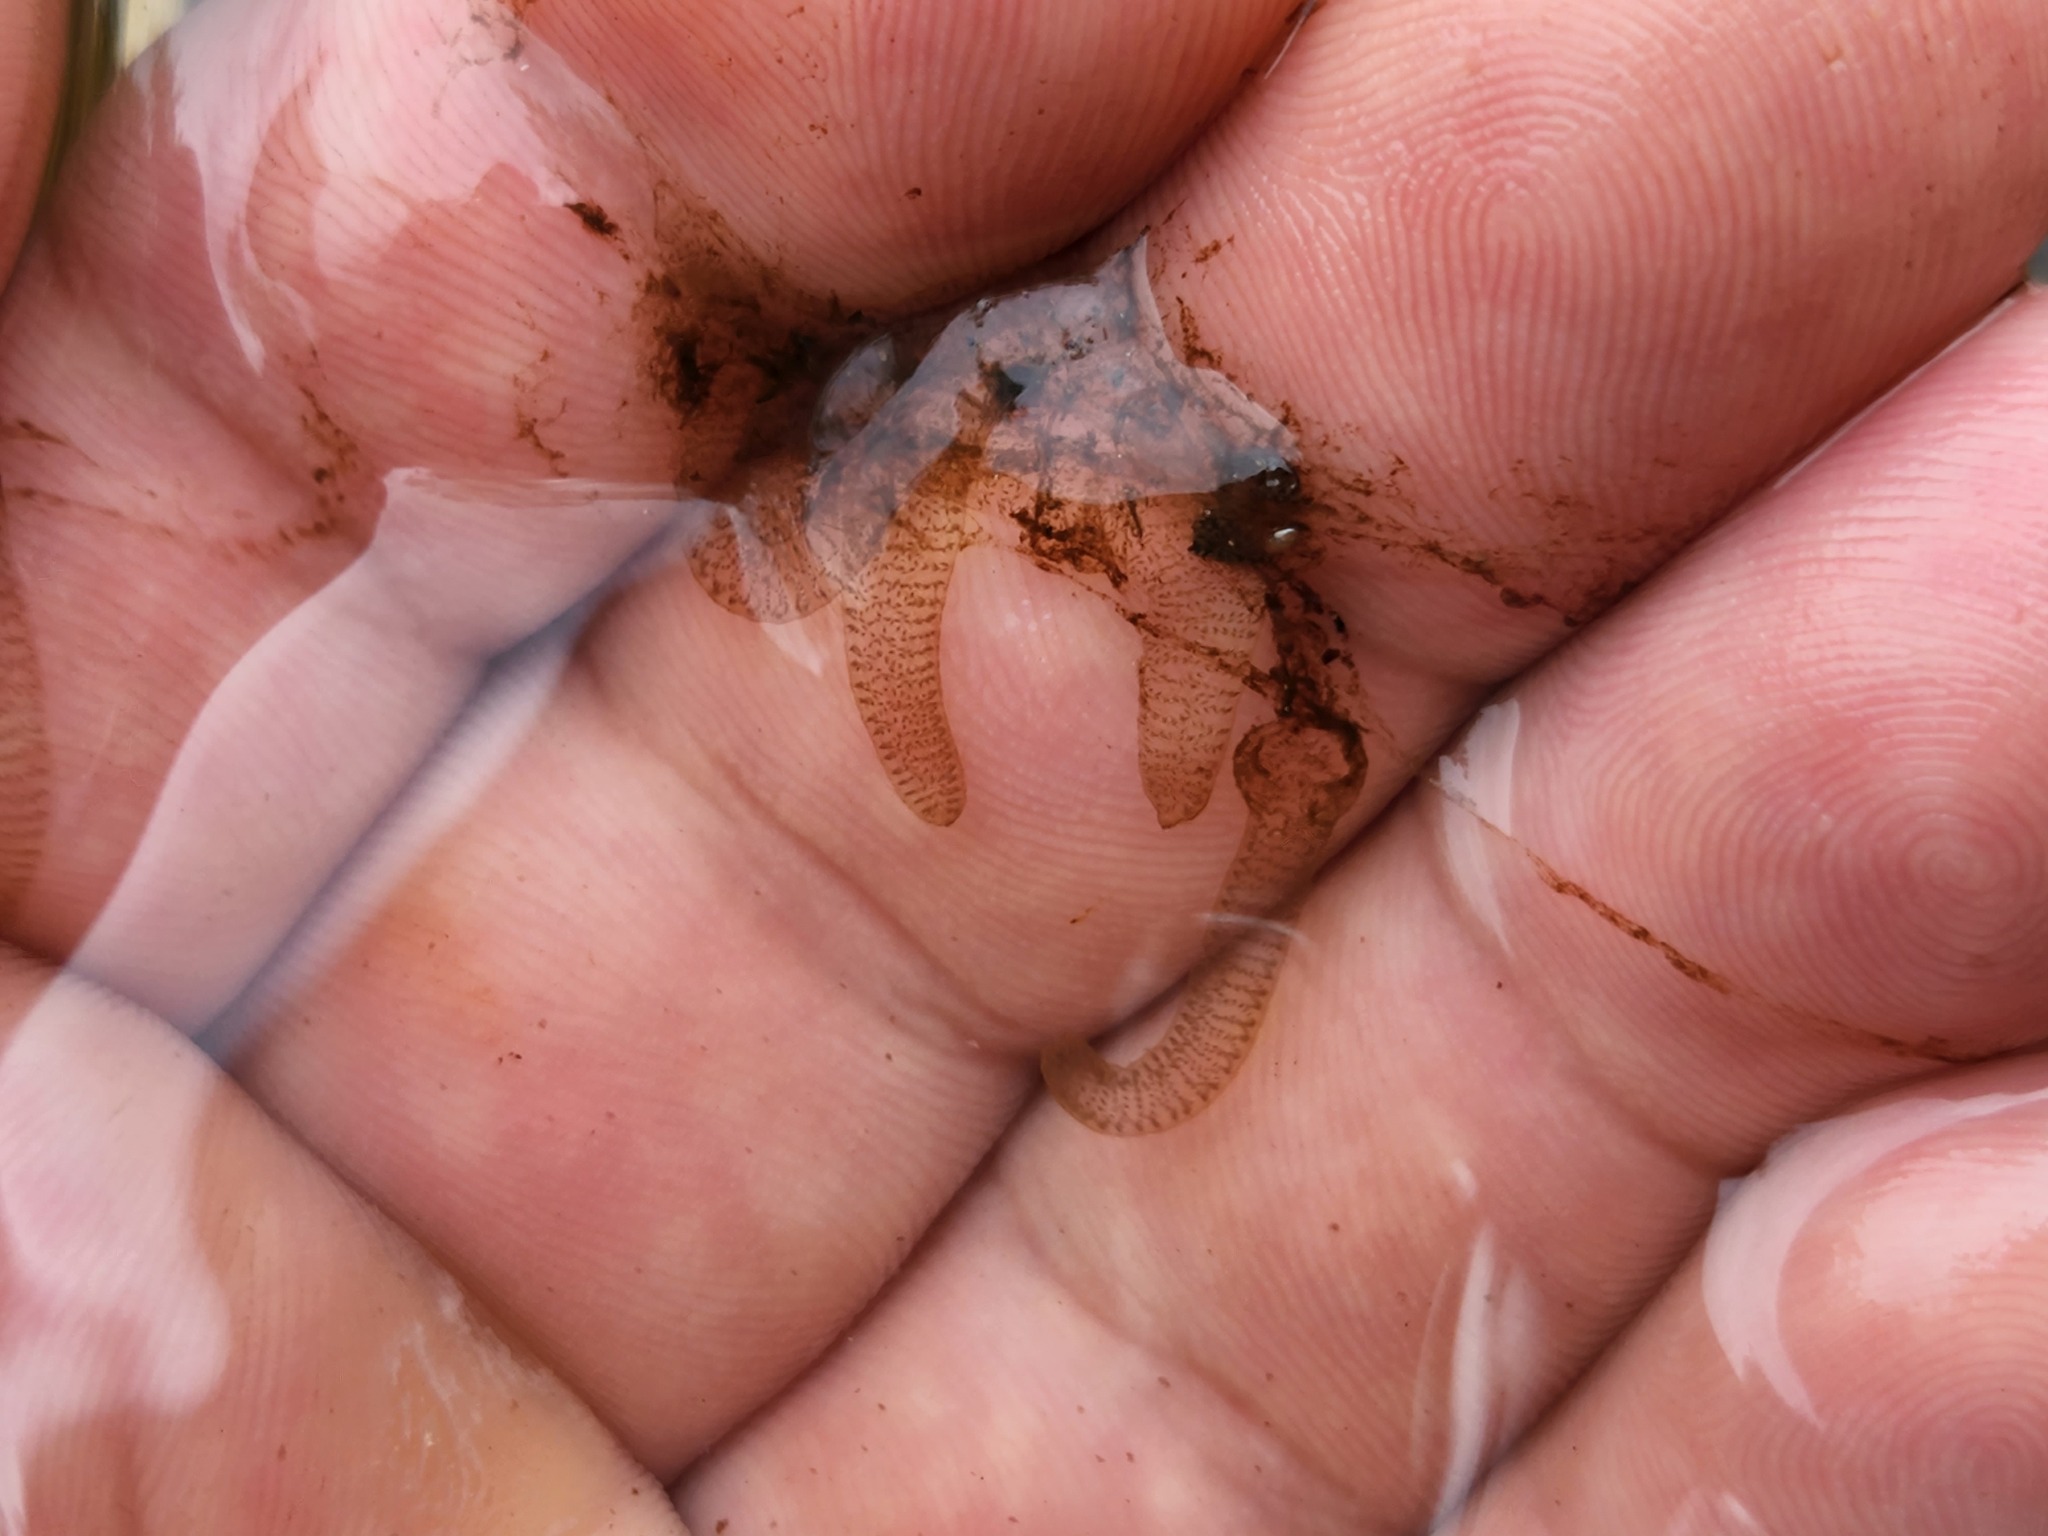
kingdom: Animalia
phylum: Bryozoa
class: Phylactolaemata
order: Plumatellida
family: Cristatellidae
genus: Cristatella
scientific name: Cristatella mucedo
